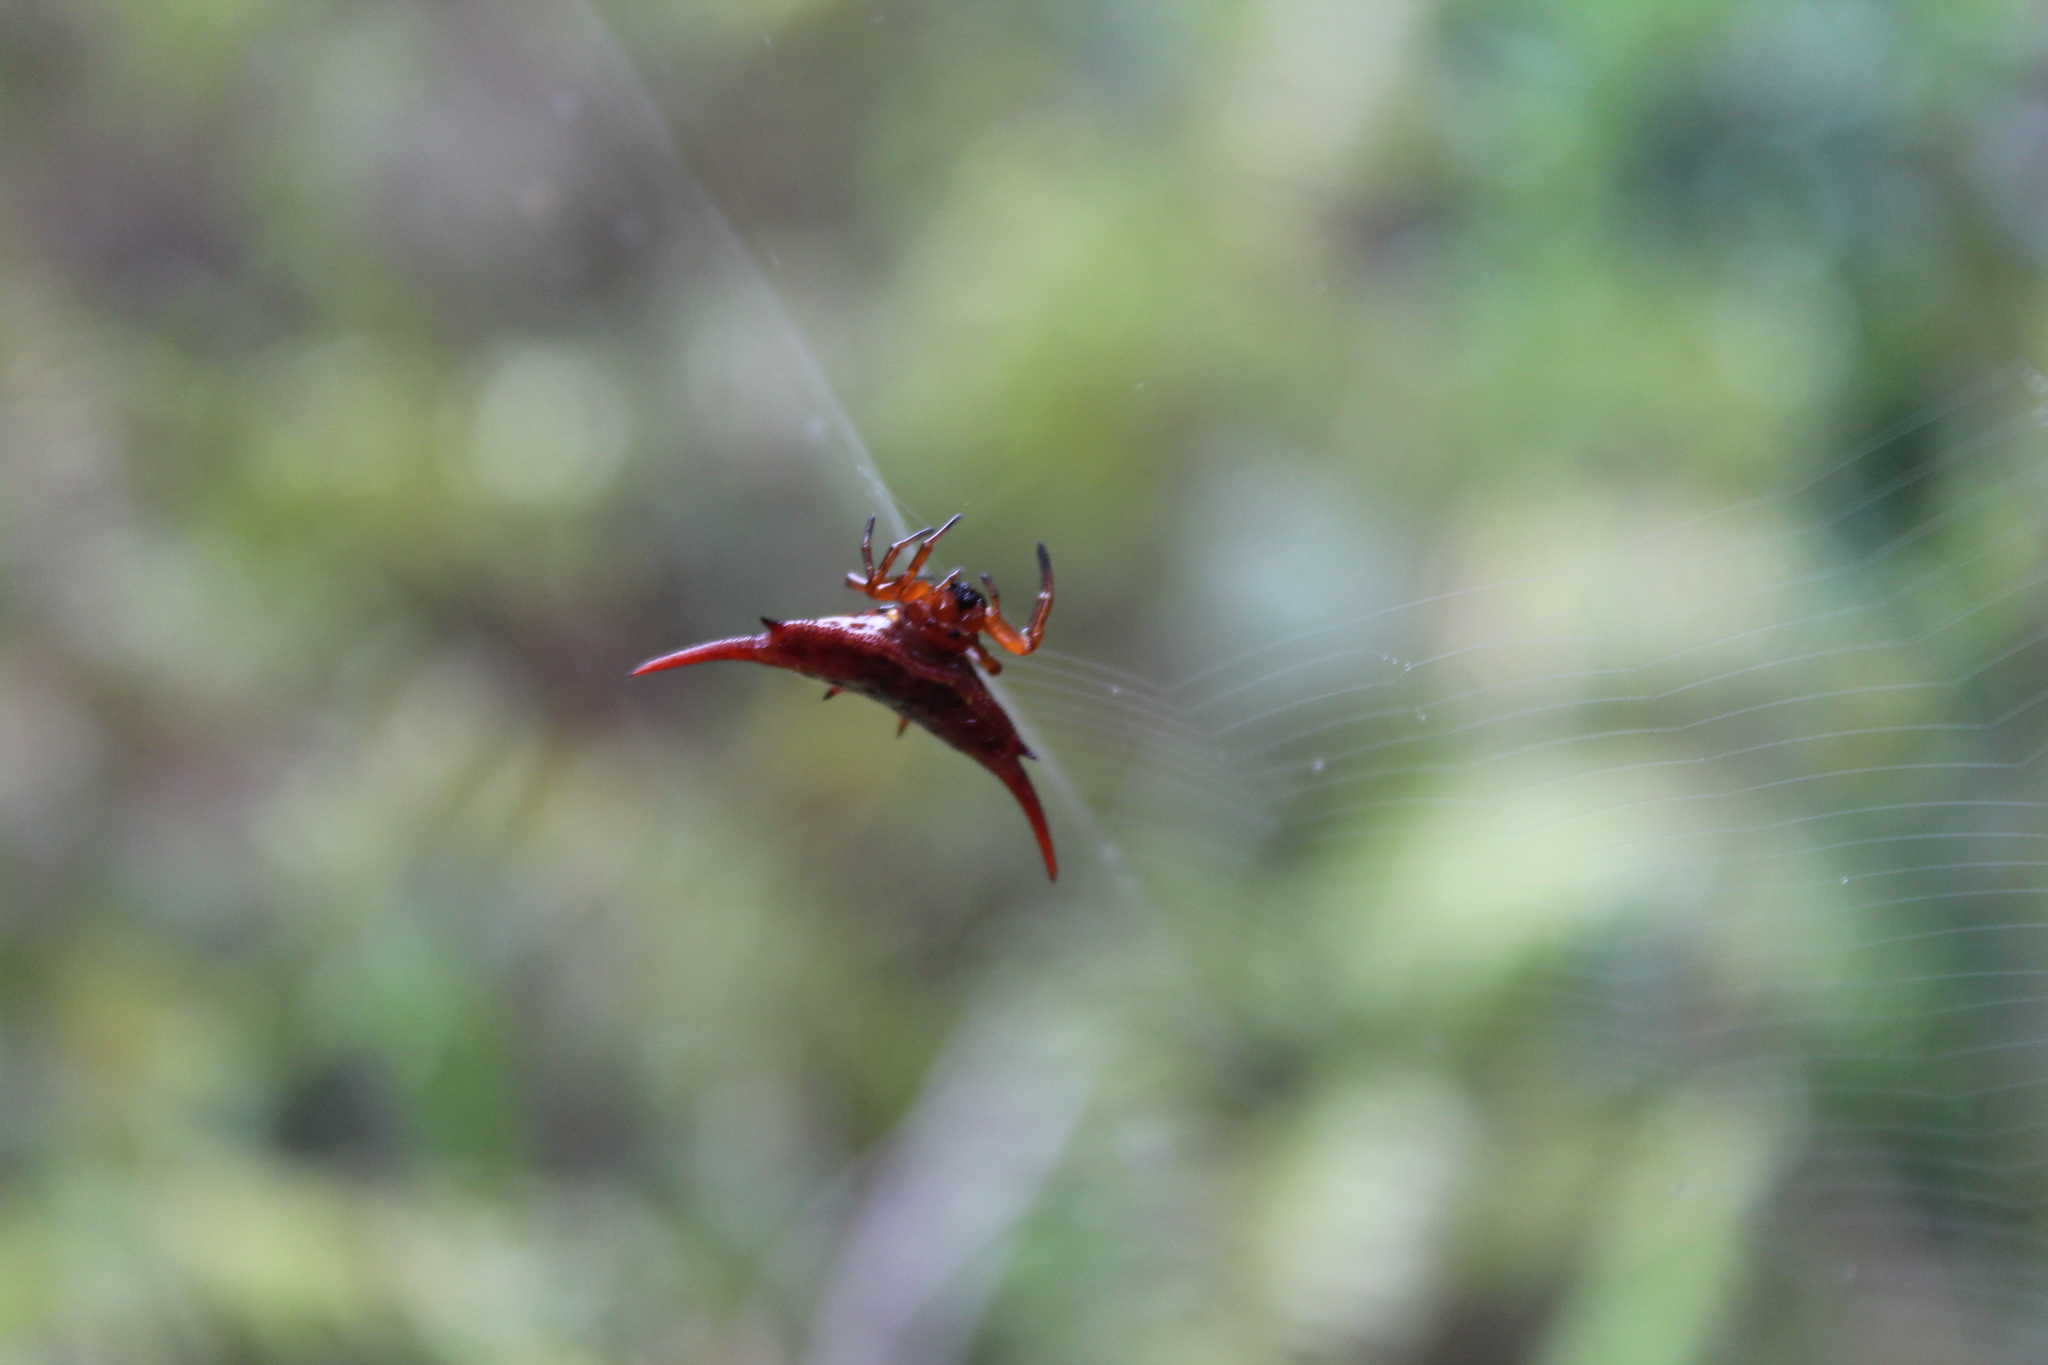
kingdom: Animalia
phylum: Arthropoda
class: Arachnida
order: Araneae
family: Araneidae
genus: Gasteracantha
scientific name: Gasteracantha versicolor
